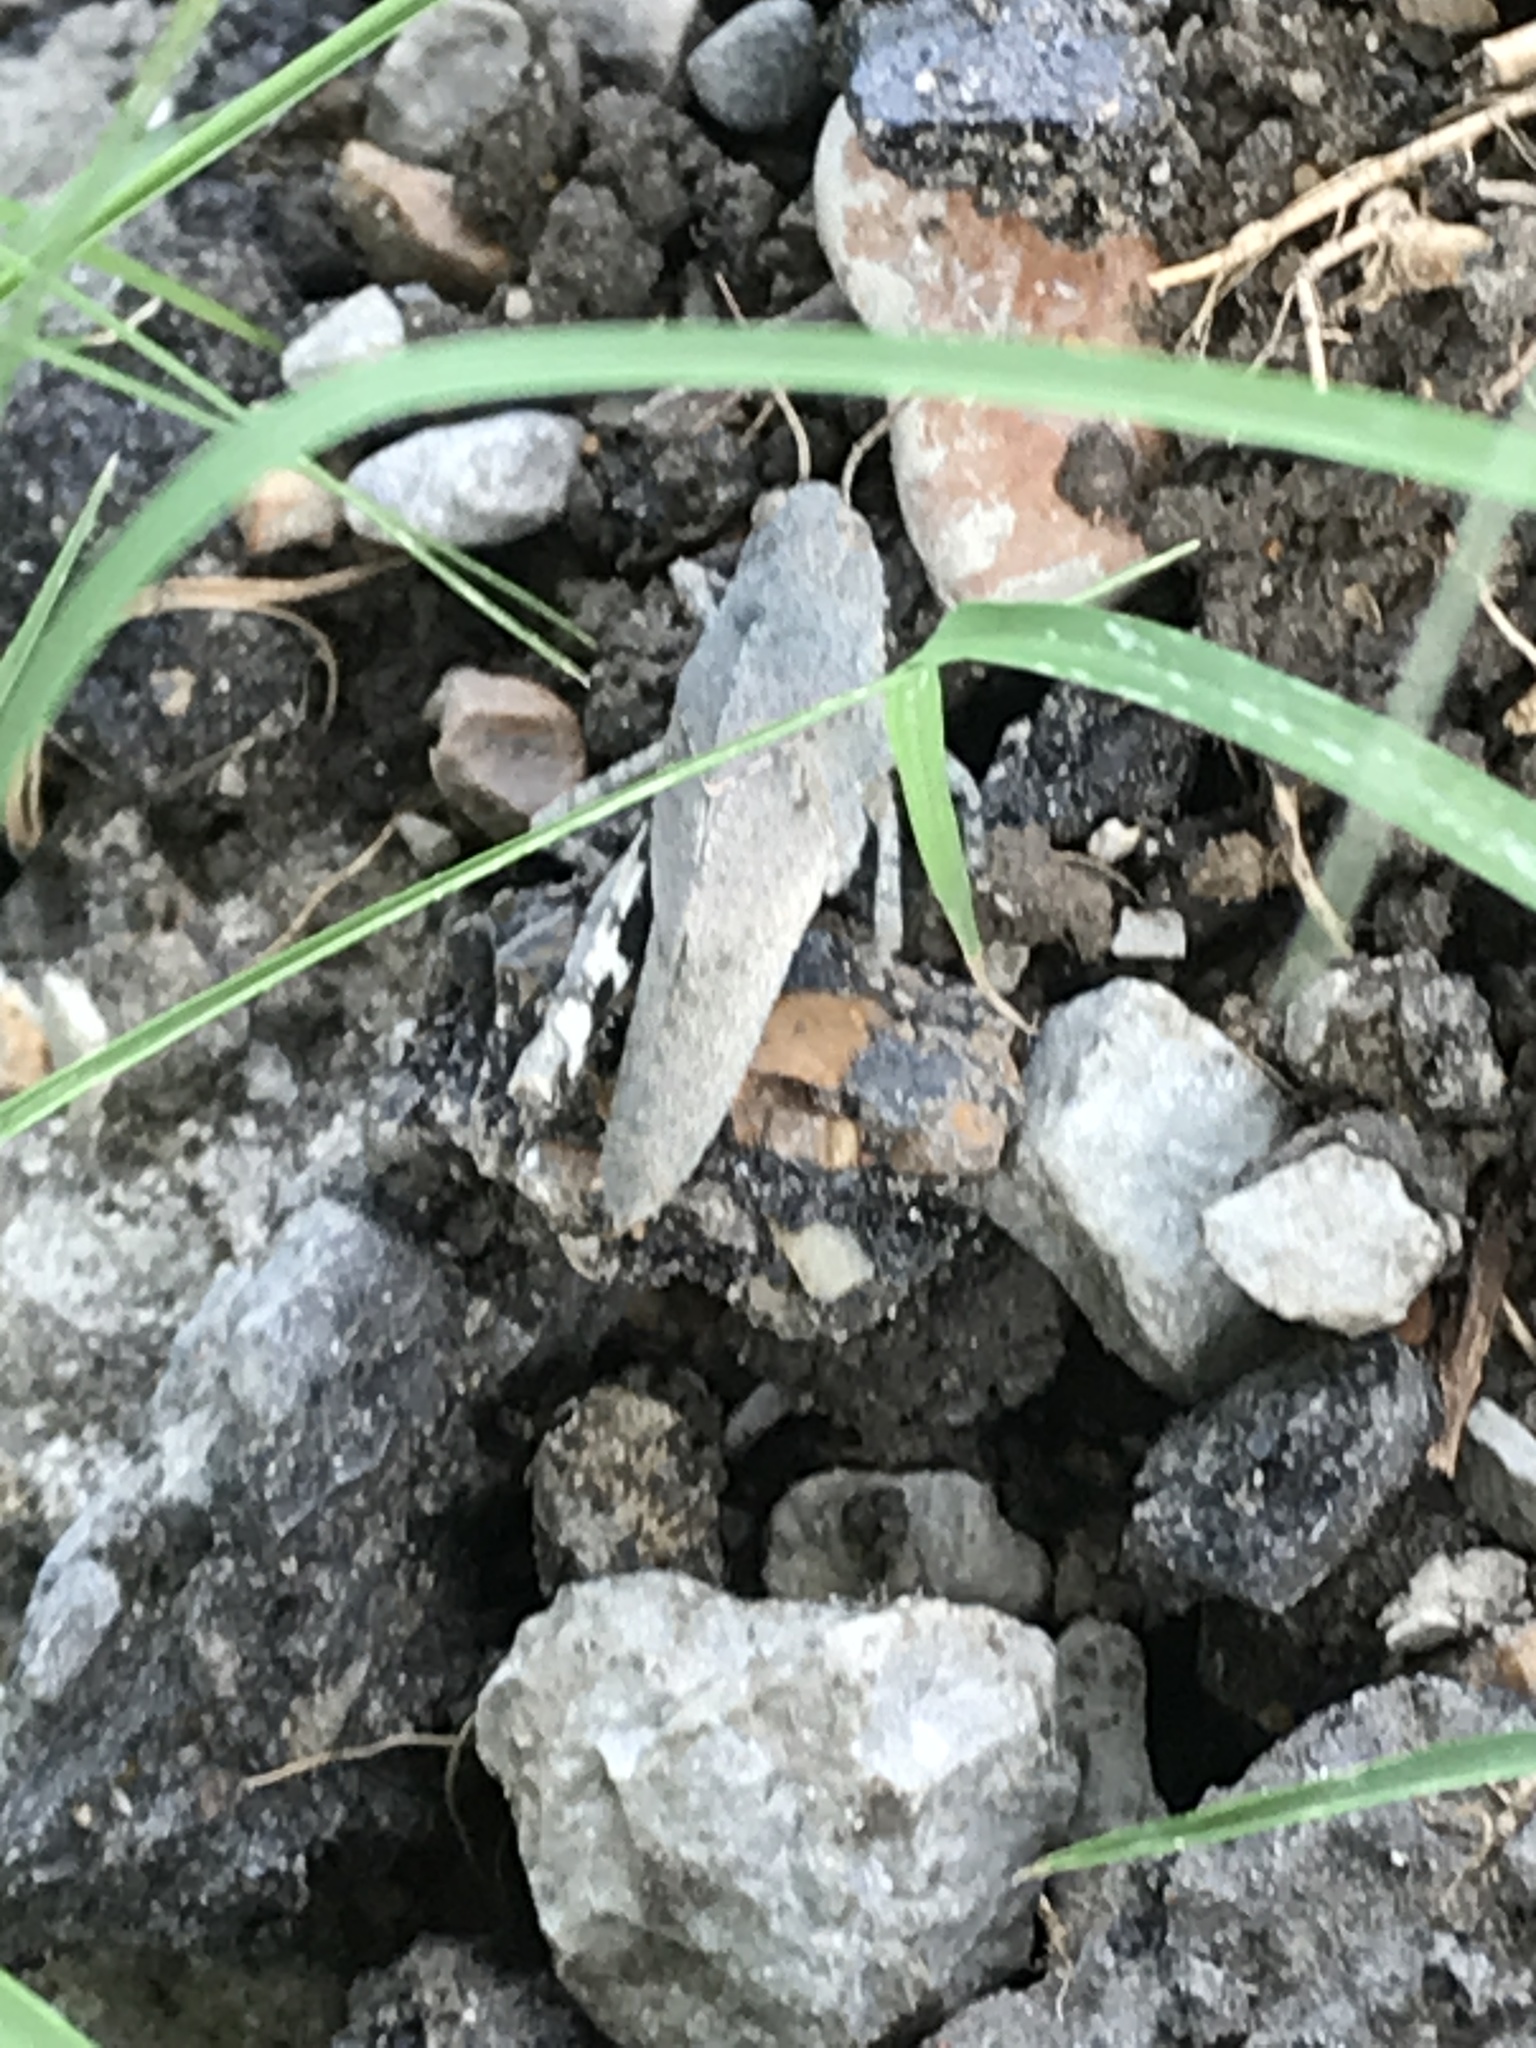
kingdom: Animalia
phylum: Arthropoda
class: Insecta
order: Orthoptera
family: Acrididae
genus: Dissosteira
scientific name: Dissosteira carolina
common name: Carolina grasshopper
